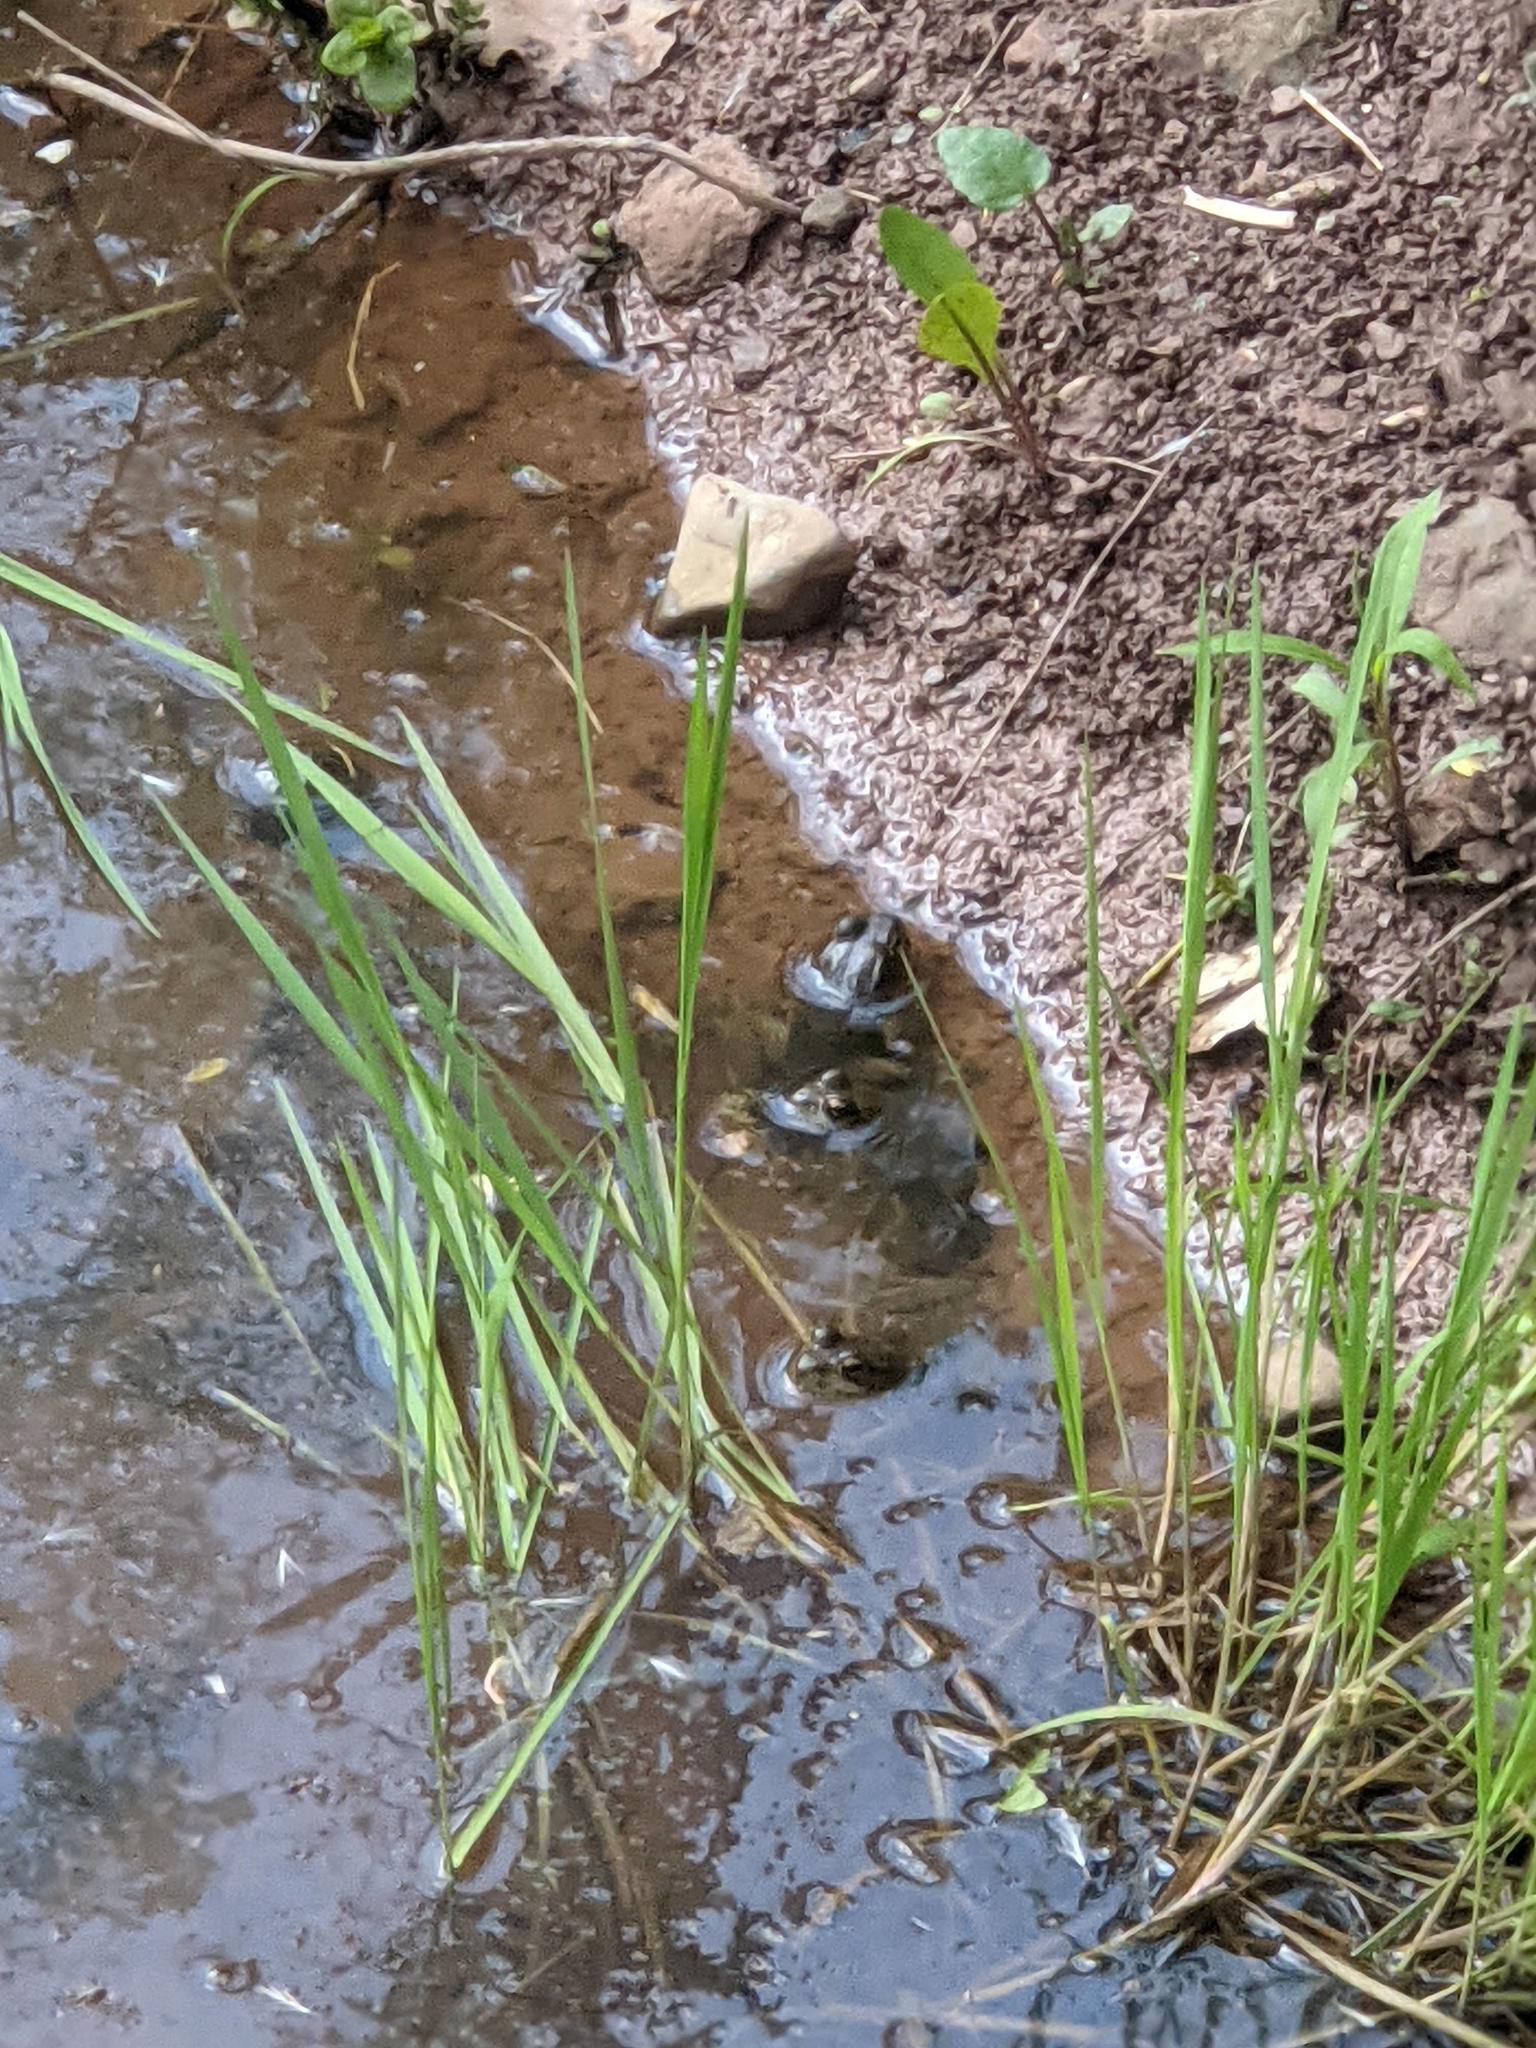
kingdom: Animalia
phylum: Chordata
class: Amphibia
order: Anura
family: Ranidae
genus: Lithobates
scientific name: Lithobates clamitans
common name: Green frog
